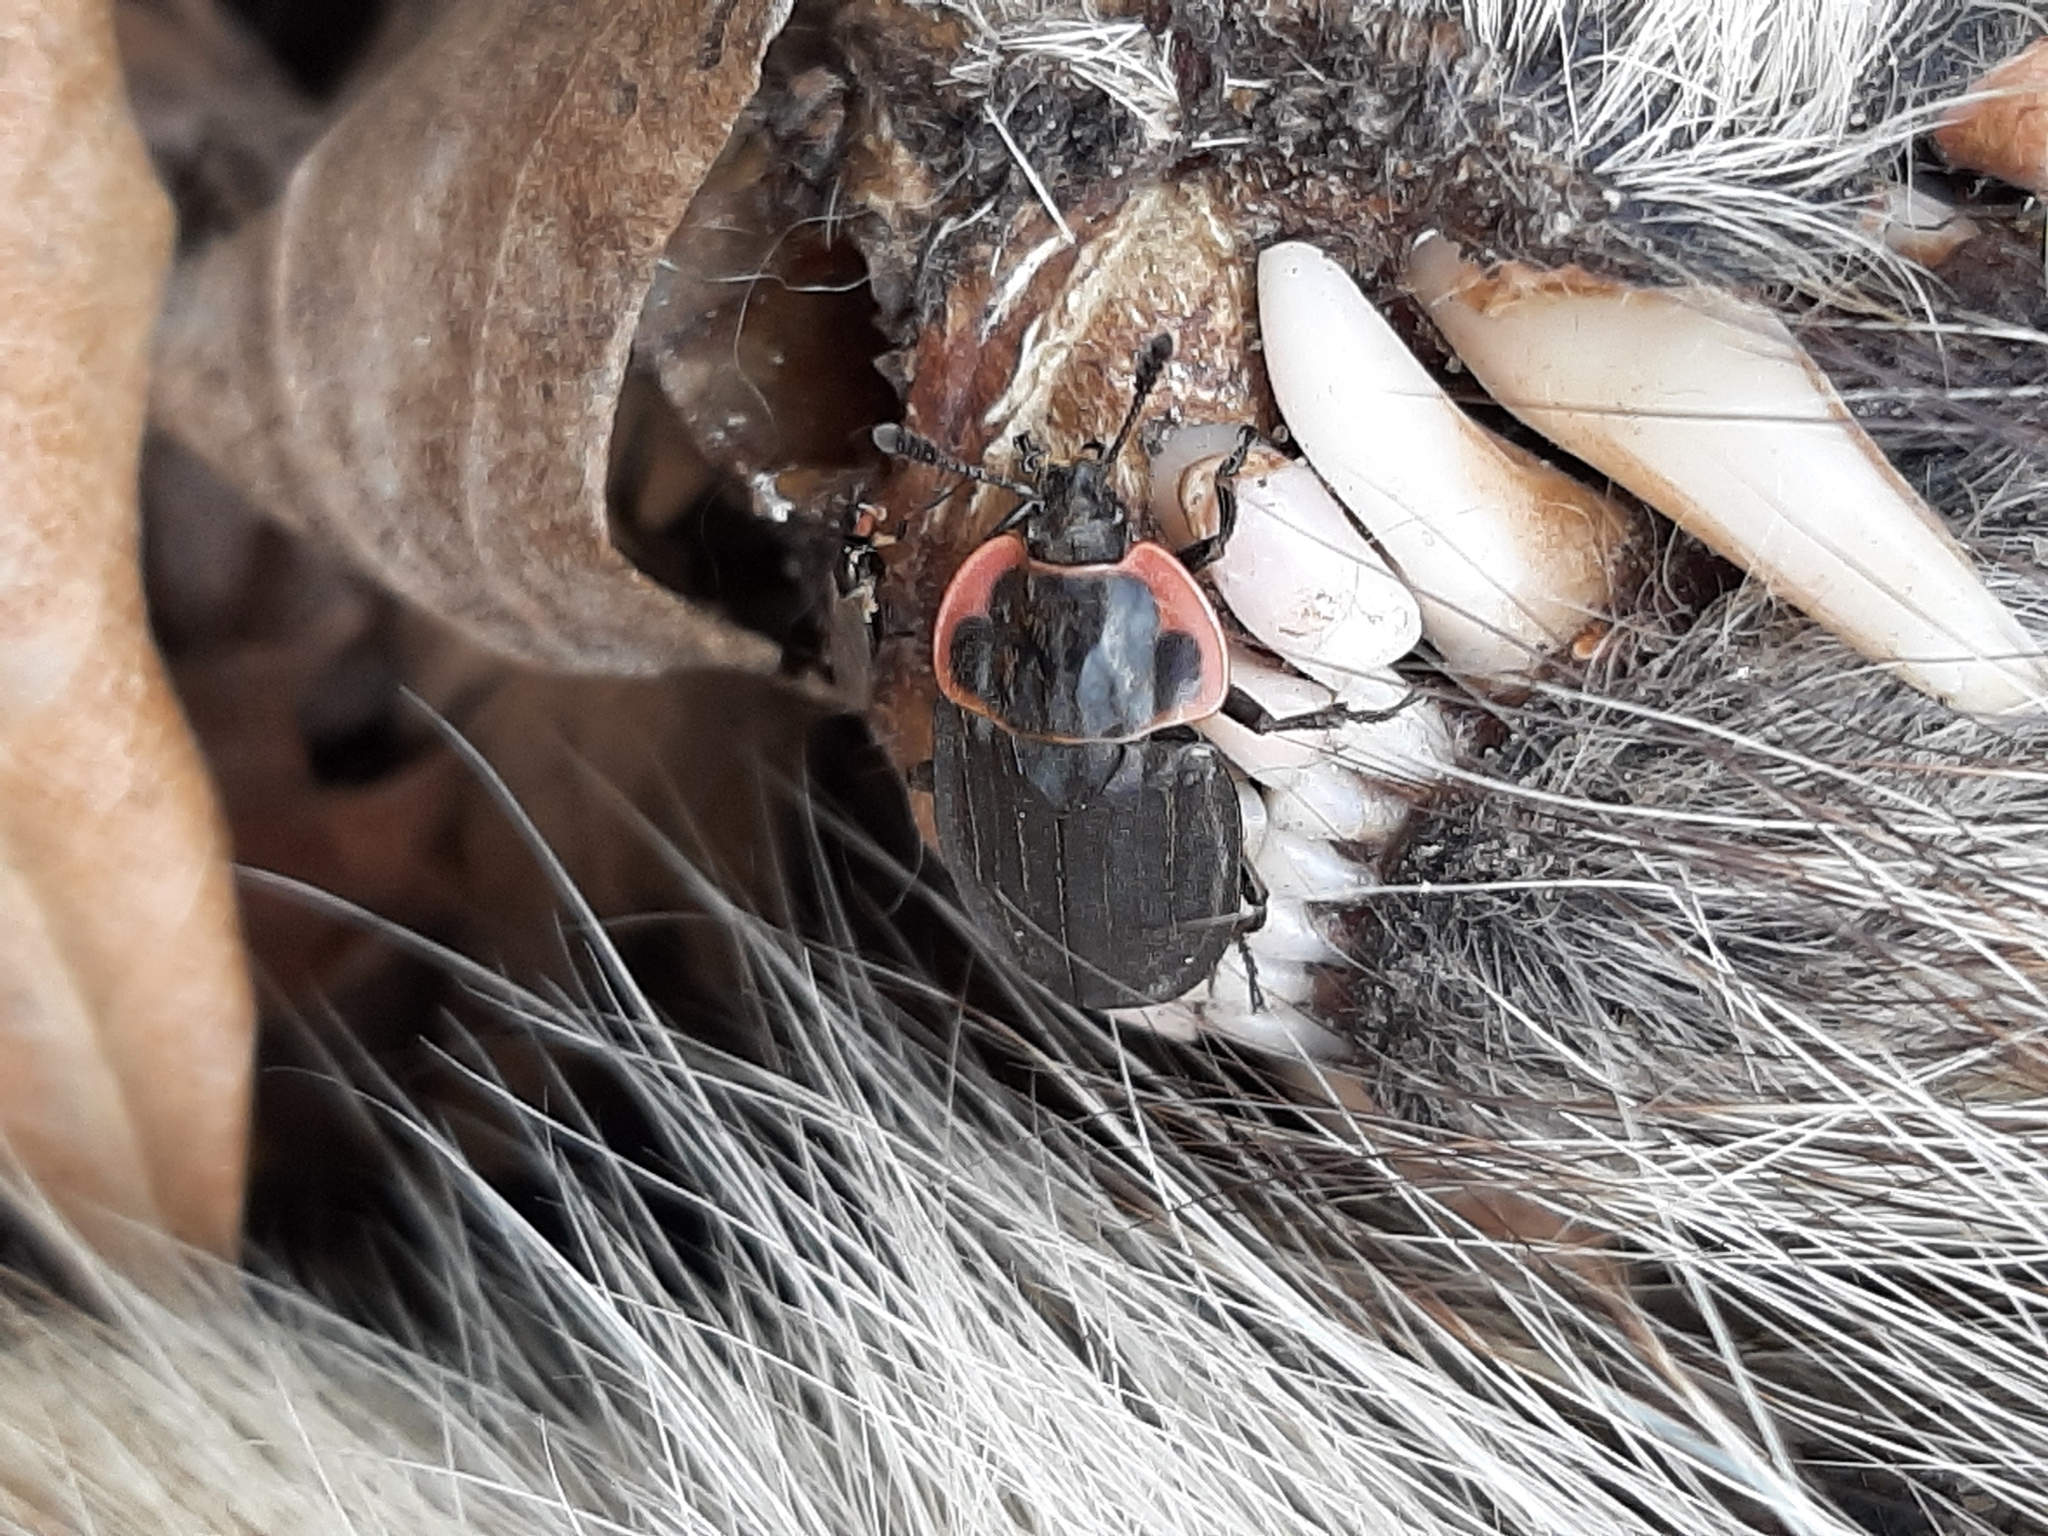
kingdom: Animalia
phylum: Arthropoda
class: Insecta
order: Coleoptera
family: Staphylinidae
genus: Oiceoptoma
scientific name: Oiceoptoma noveboracense
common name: Margined carrion beetle
